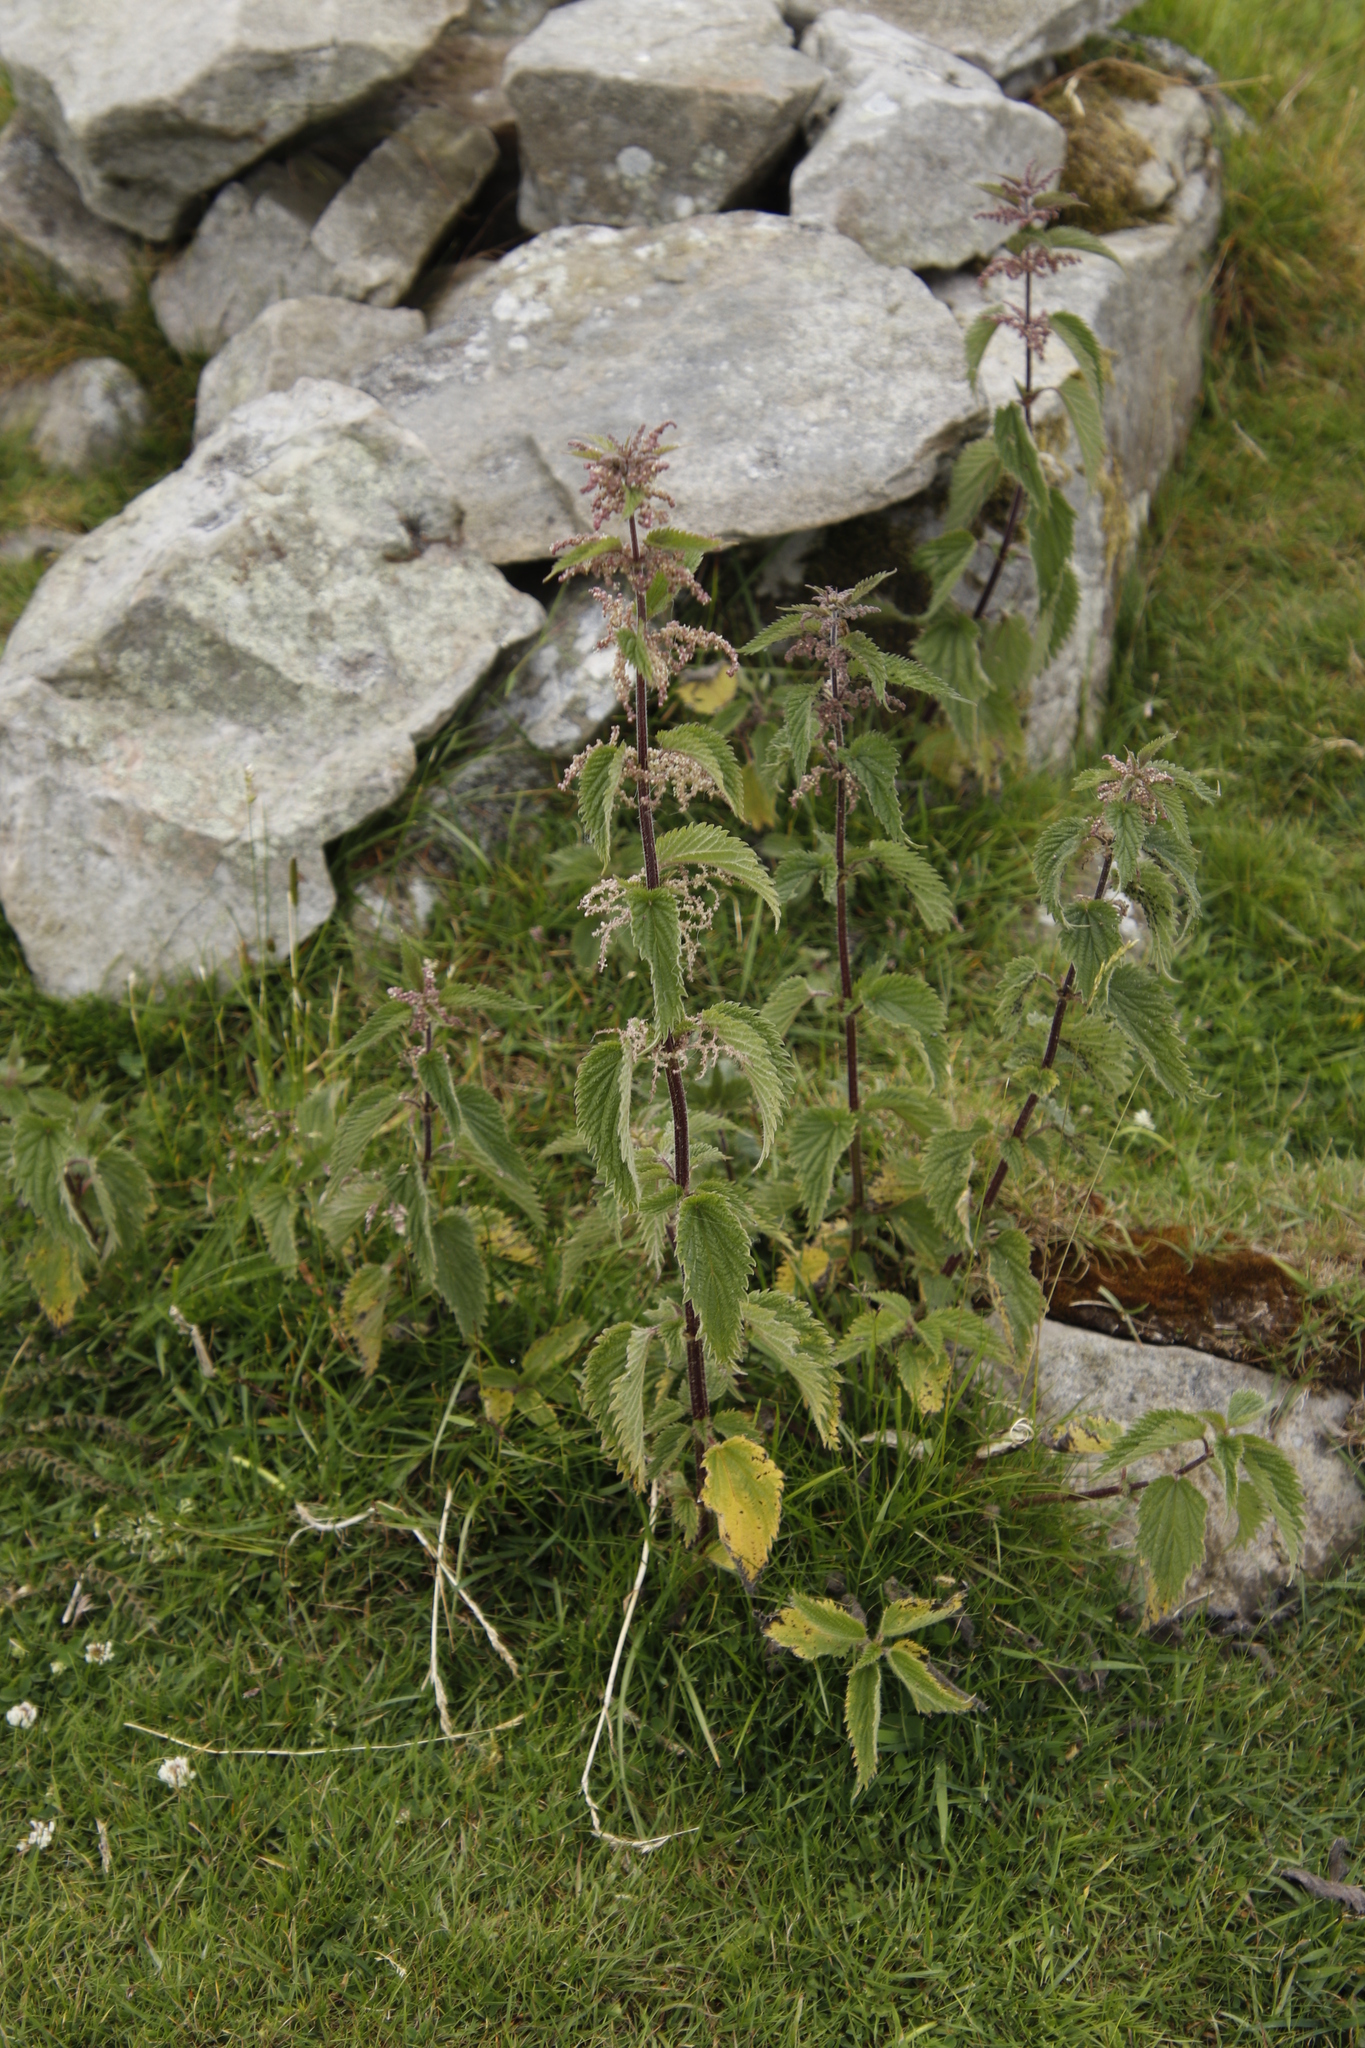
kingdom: Plantae
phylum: Tracheophyta
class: Magnoliopsida
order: Rosales
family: Urticaceae
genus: Urtica
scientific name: Urtica dioica
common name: Common nettle
